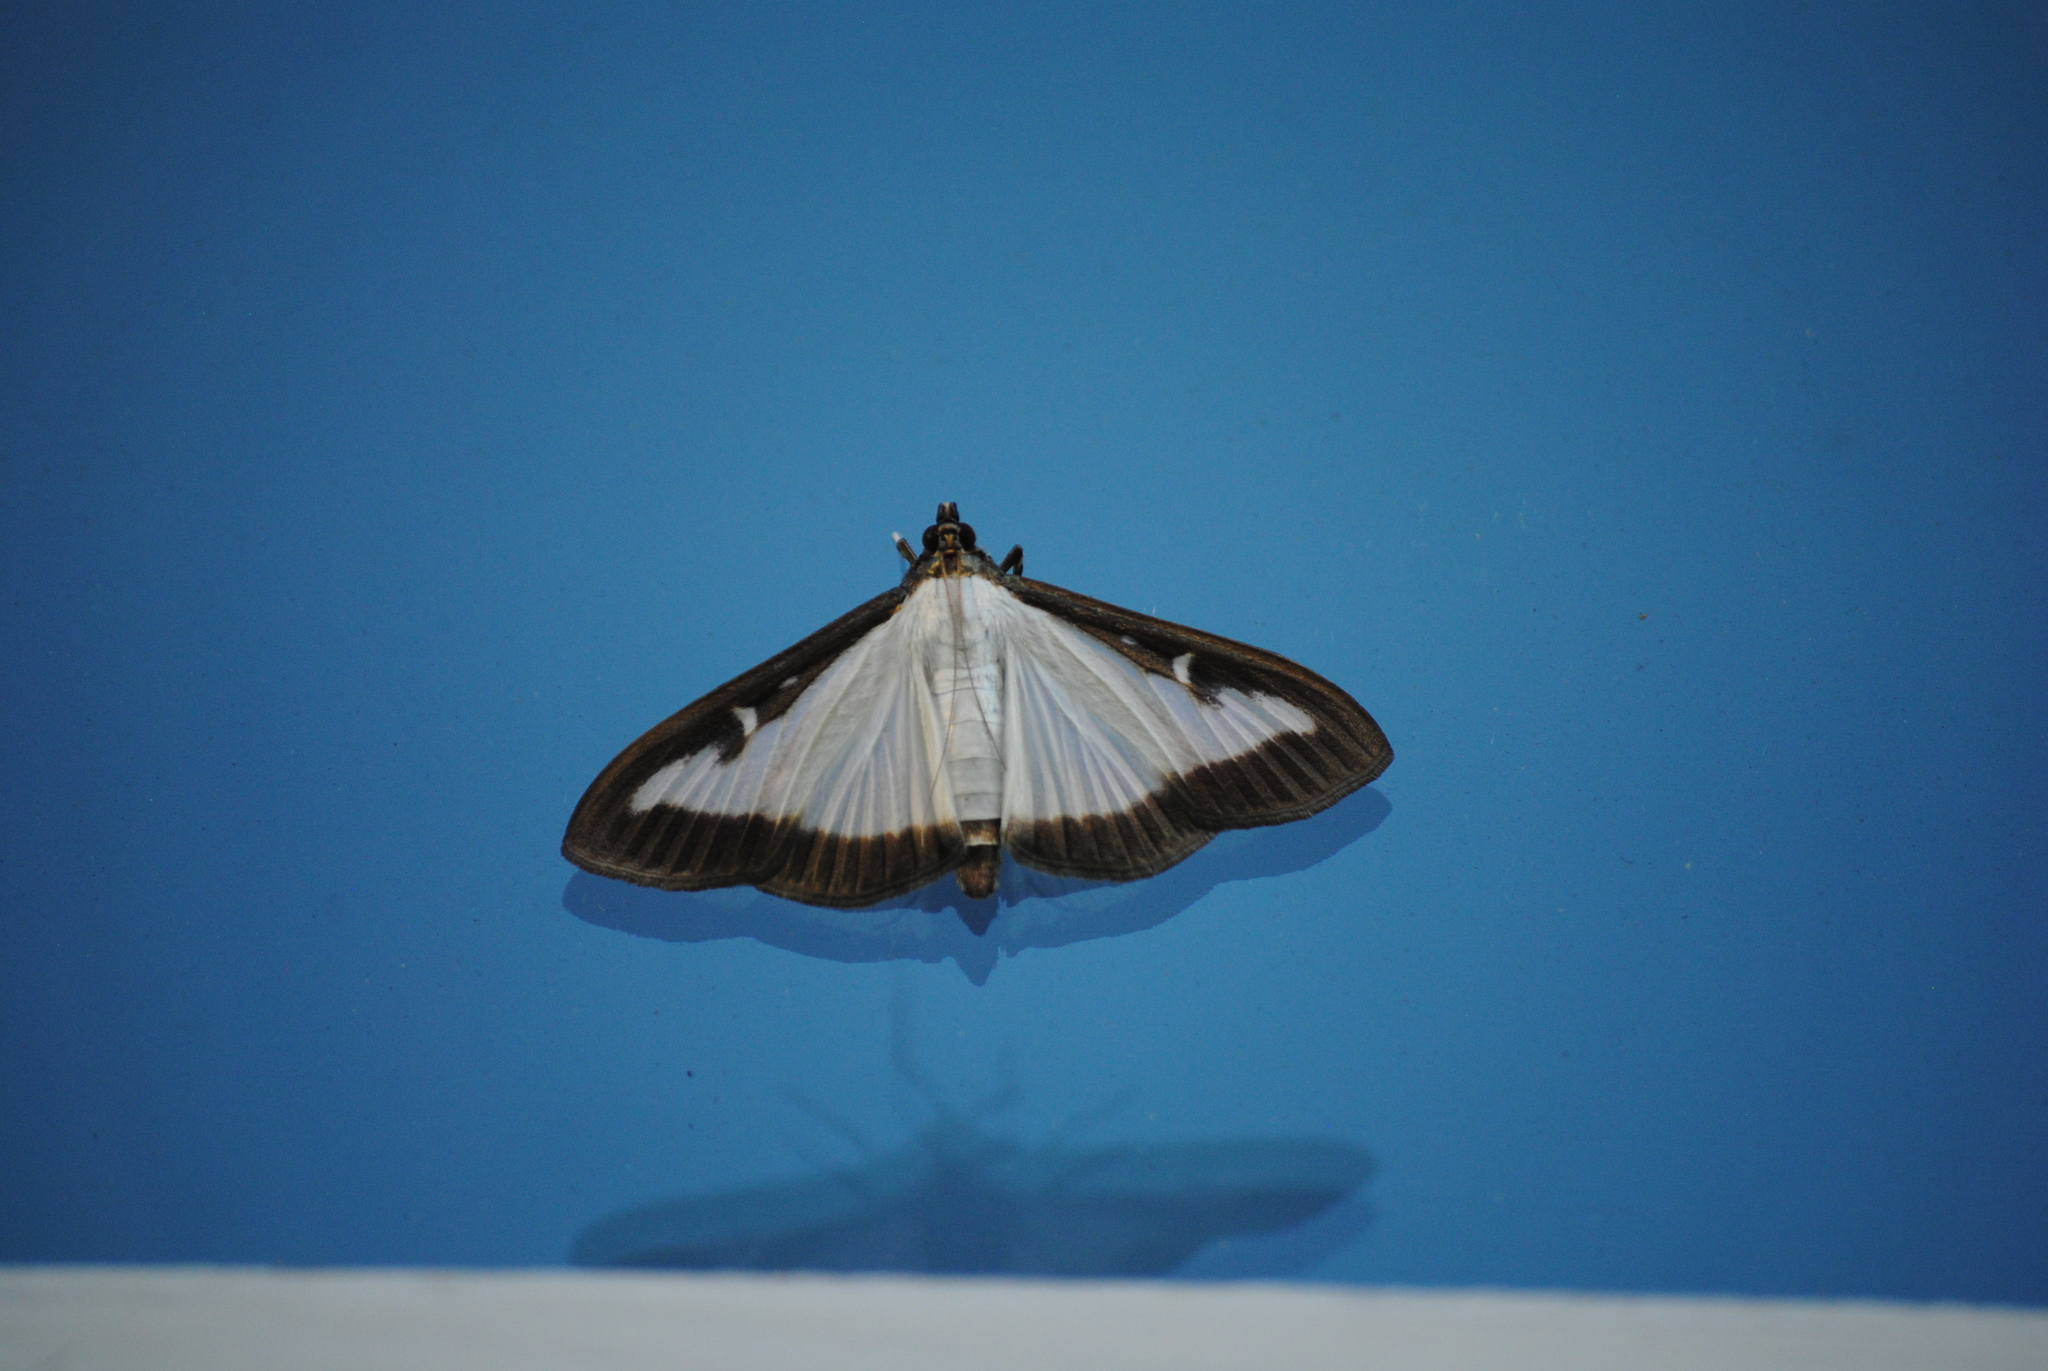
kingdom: Animalia
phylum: Arthropoda
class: Insecta
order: Lepidoptera
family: Crambidae
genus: Cydalima
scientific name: Cydalima perspectalis
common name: Box tree moth
